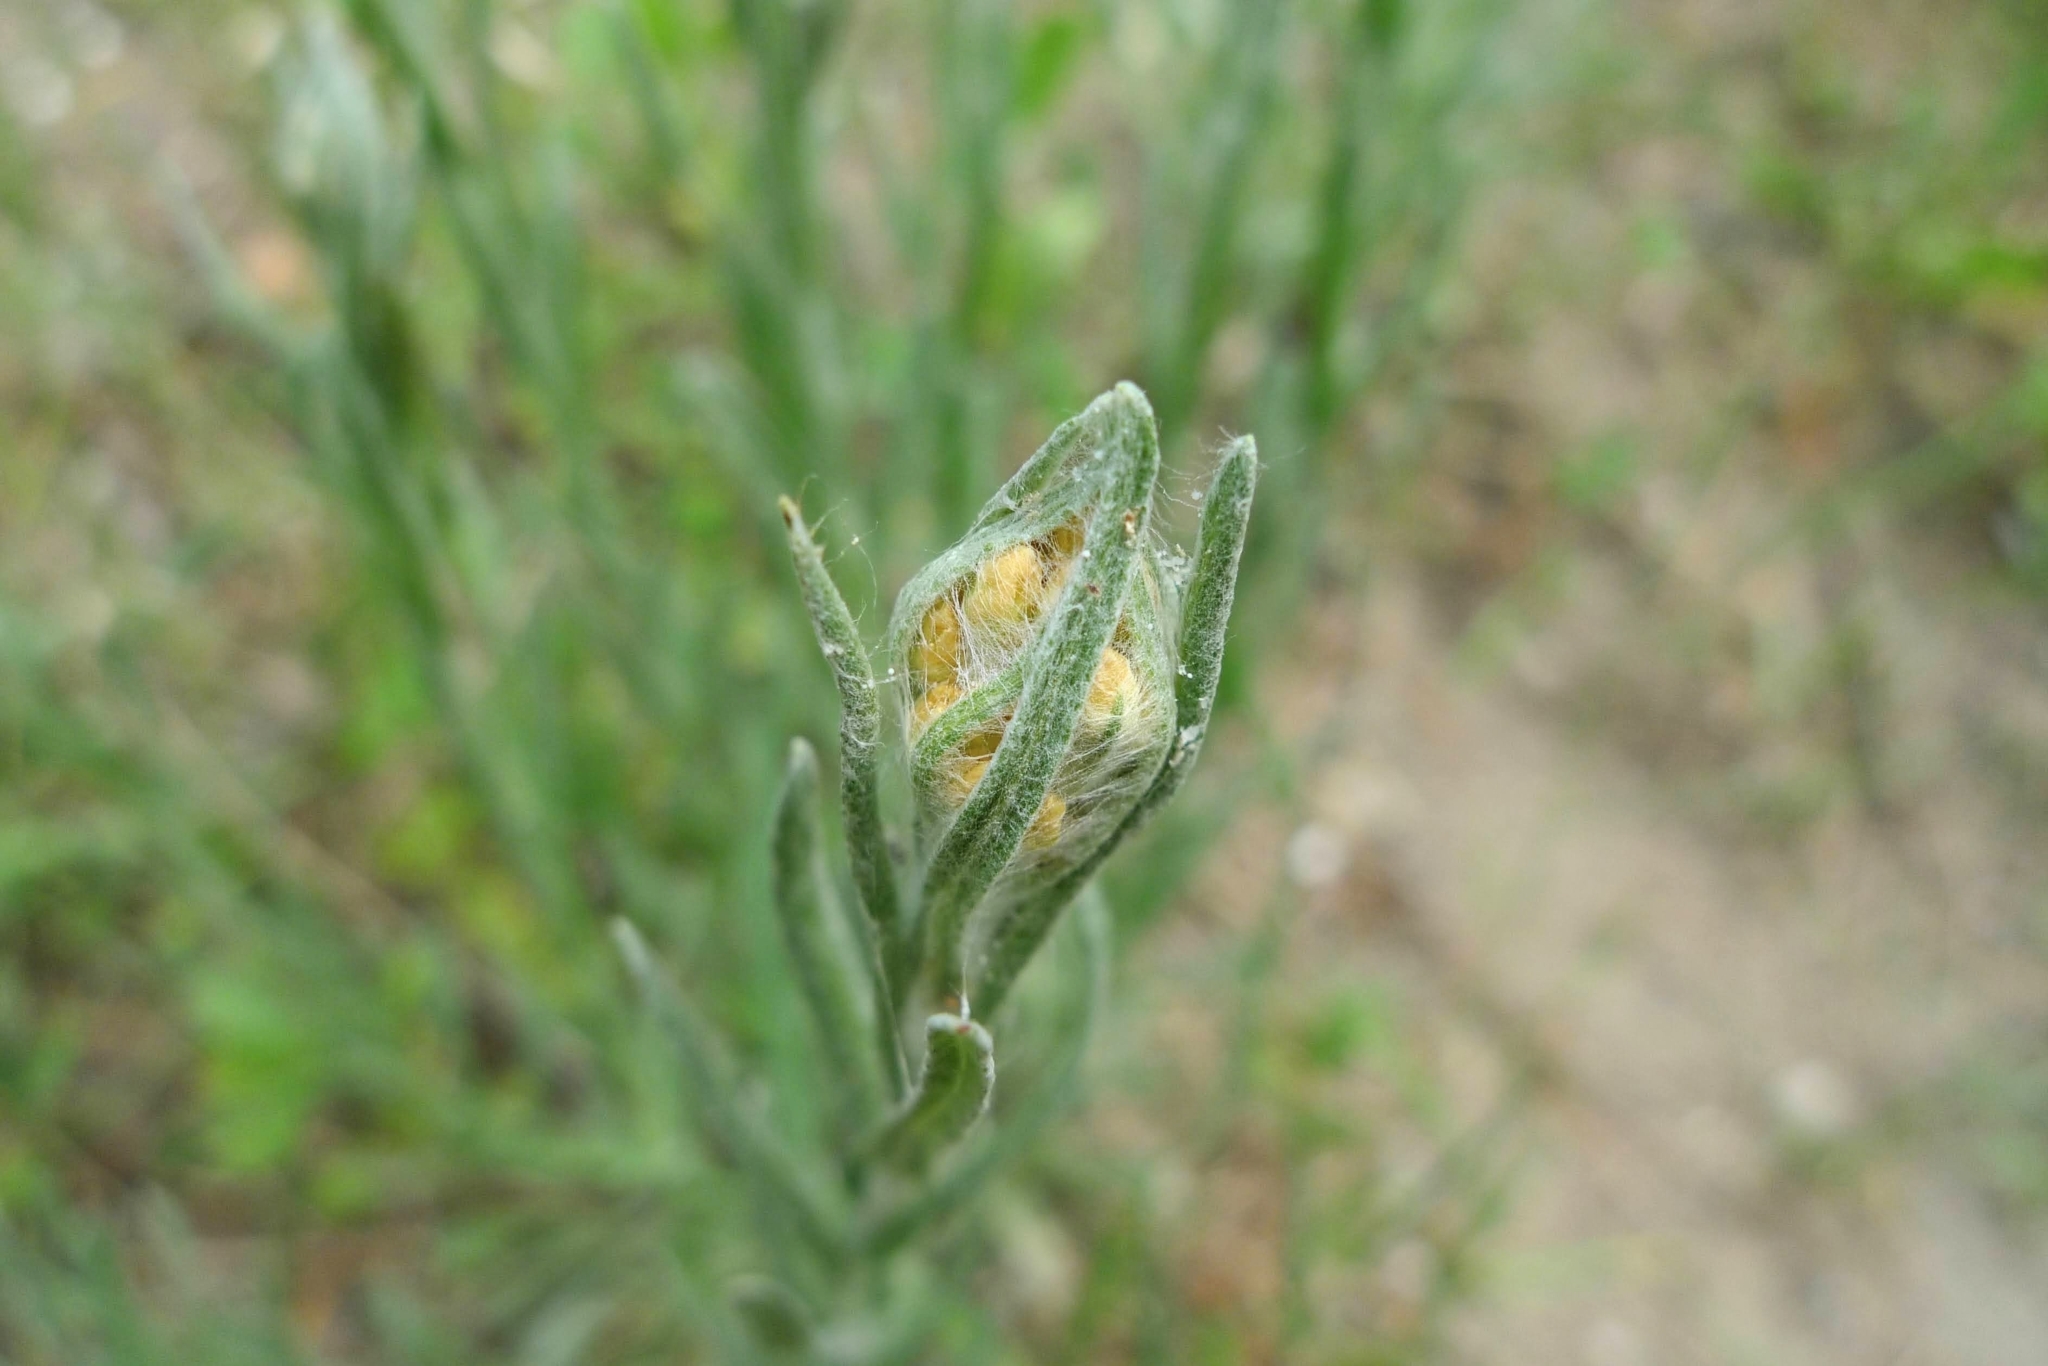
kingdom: Plantae
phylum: Tracheophyta
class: Magnoliopsida
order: Asterales
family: Asteraceae
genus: Helichrysum
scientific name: Helichrysum arenarium
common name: Strawflower
